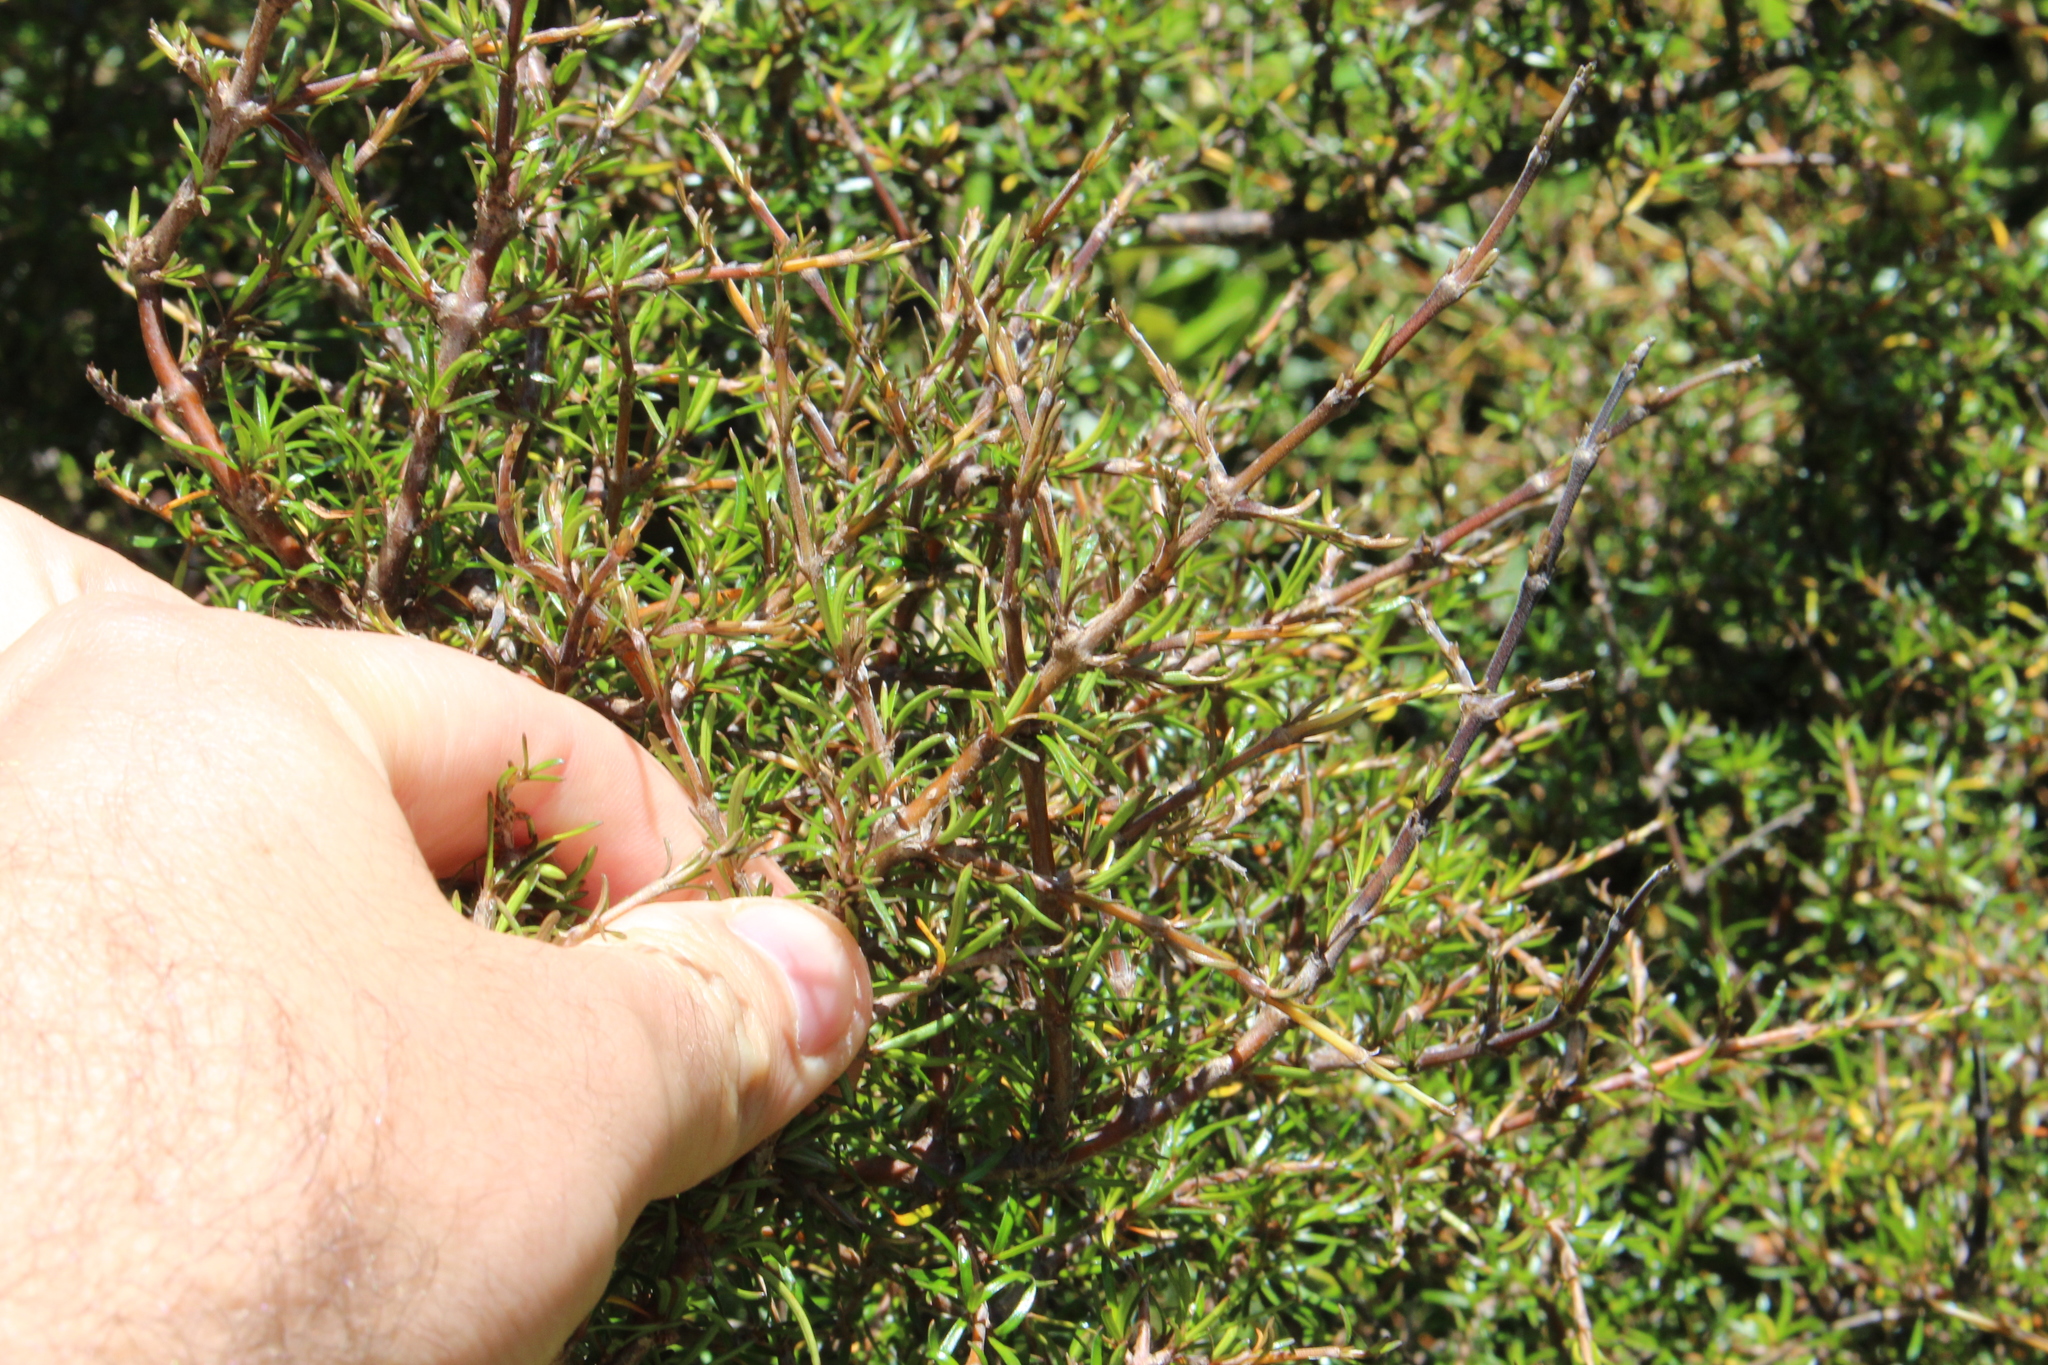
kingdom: Plantae
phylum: Tracheophyta
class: Magnoliopsida
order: Gentianales
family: Rubiaceae
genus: Coprosma
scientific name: Coprosma rugosa
